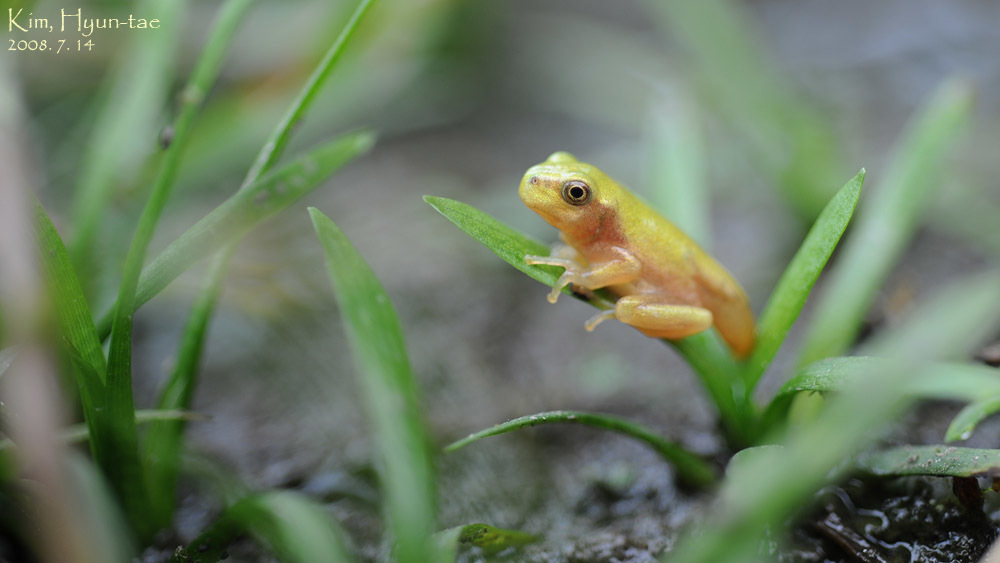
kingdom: Animalia
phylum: Chordata
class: Amphibia
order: Anura
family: Hylidae
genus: Dryophytes
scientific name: Dryophytes immaculatus
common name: North china treefrog
